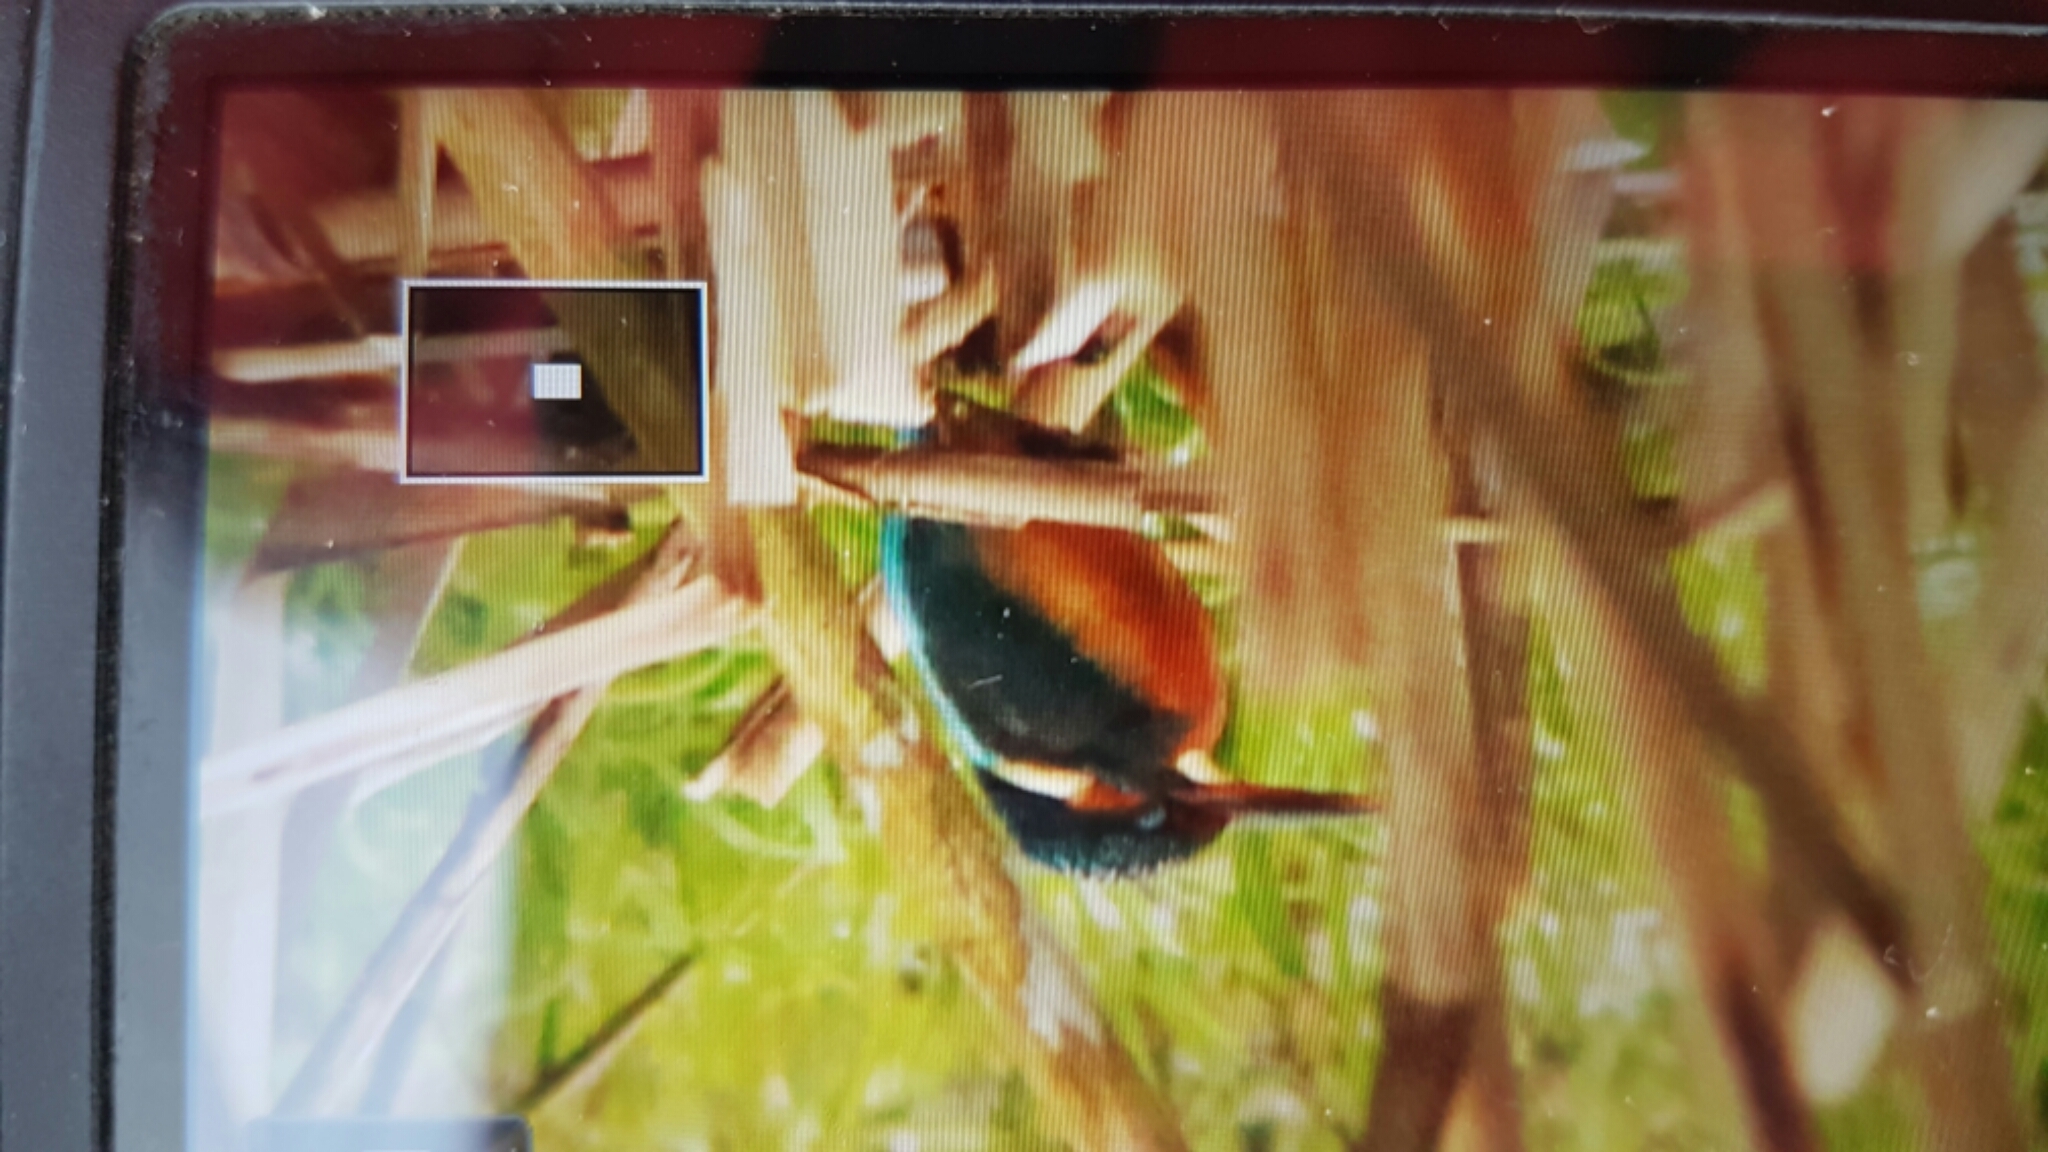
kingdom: Animalia
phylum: Chordata
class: Aves
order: Coraciiformes
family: Alcedinidae
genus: Alcedo
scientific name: Alcedo atthis
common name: Common kingfisher
